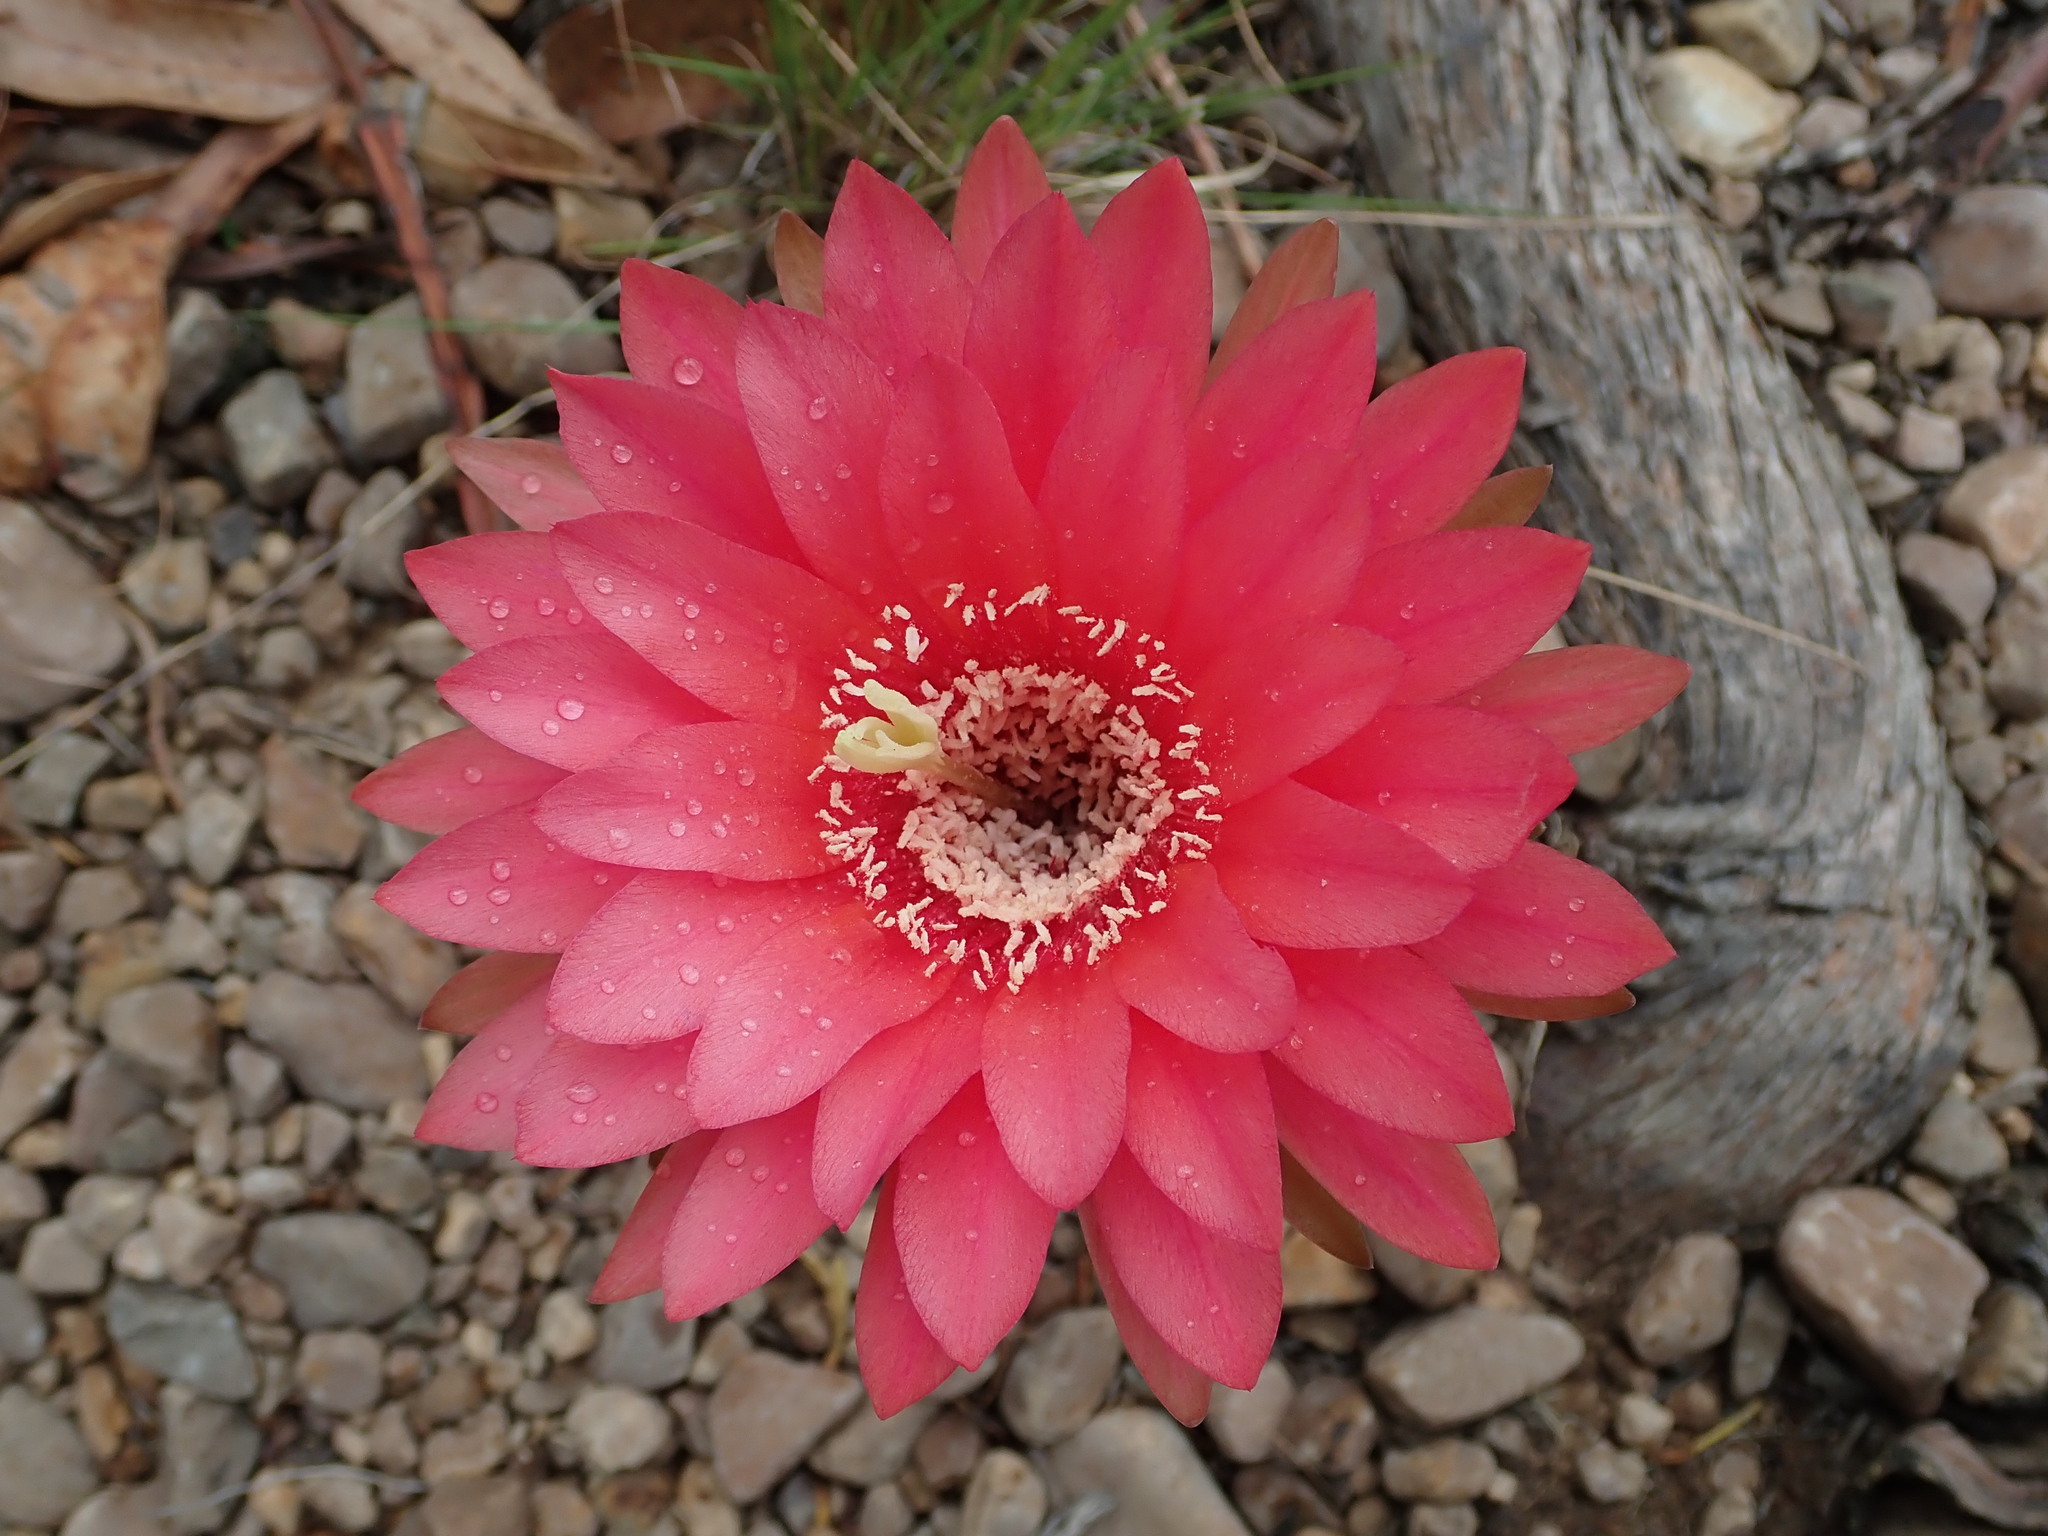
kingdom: Plantae
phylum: Tracheophyta
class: Magnoliopsida
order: Caryophyllales
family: Cactaceae
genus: Lobivia
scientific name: Lobivia obrepanda
